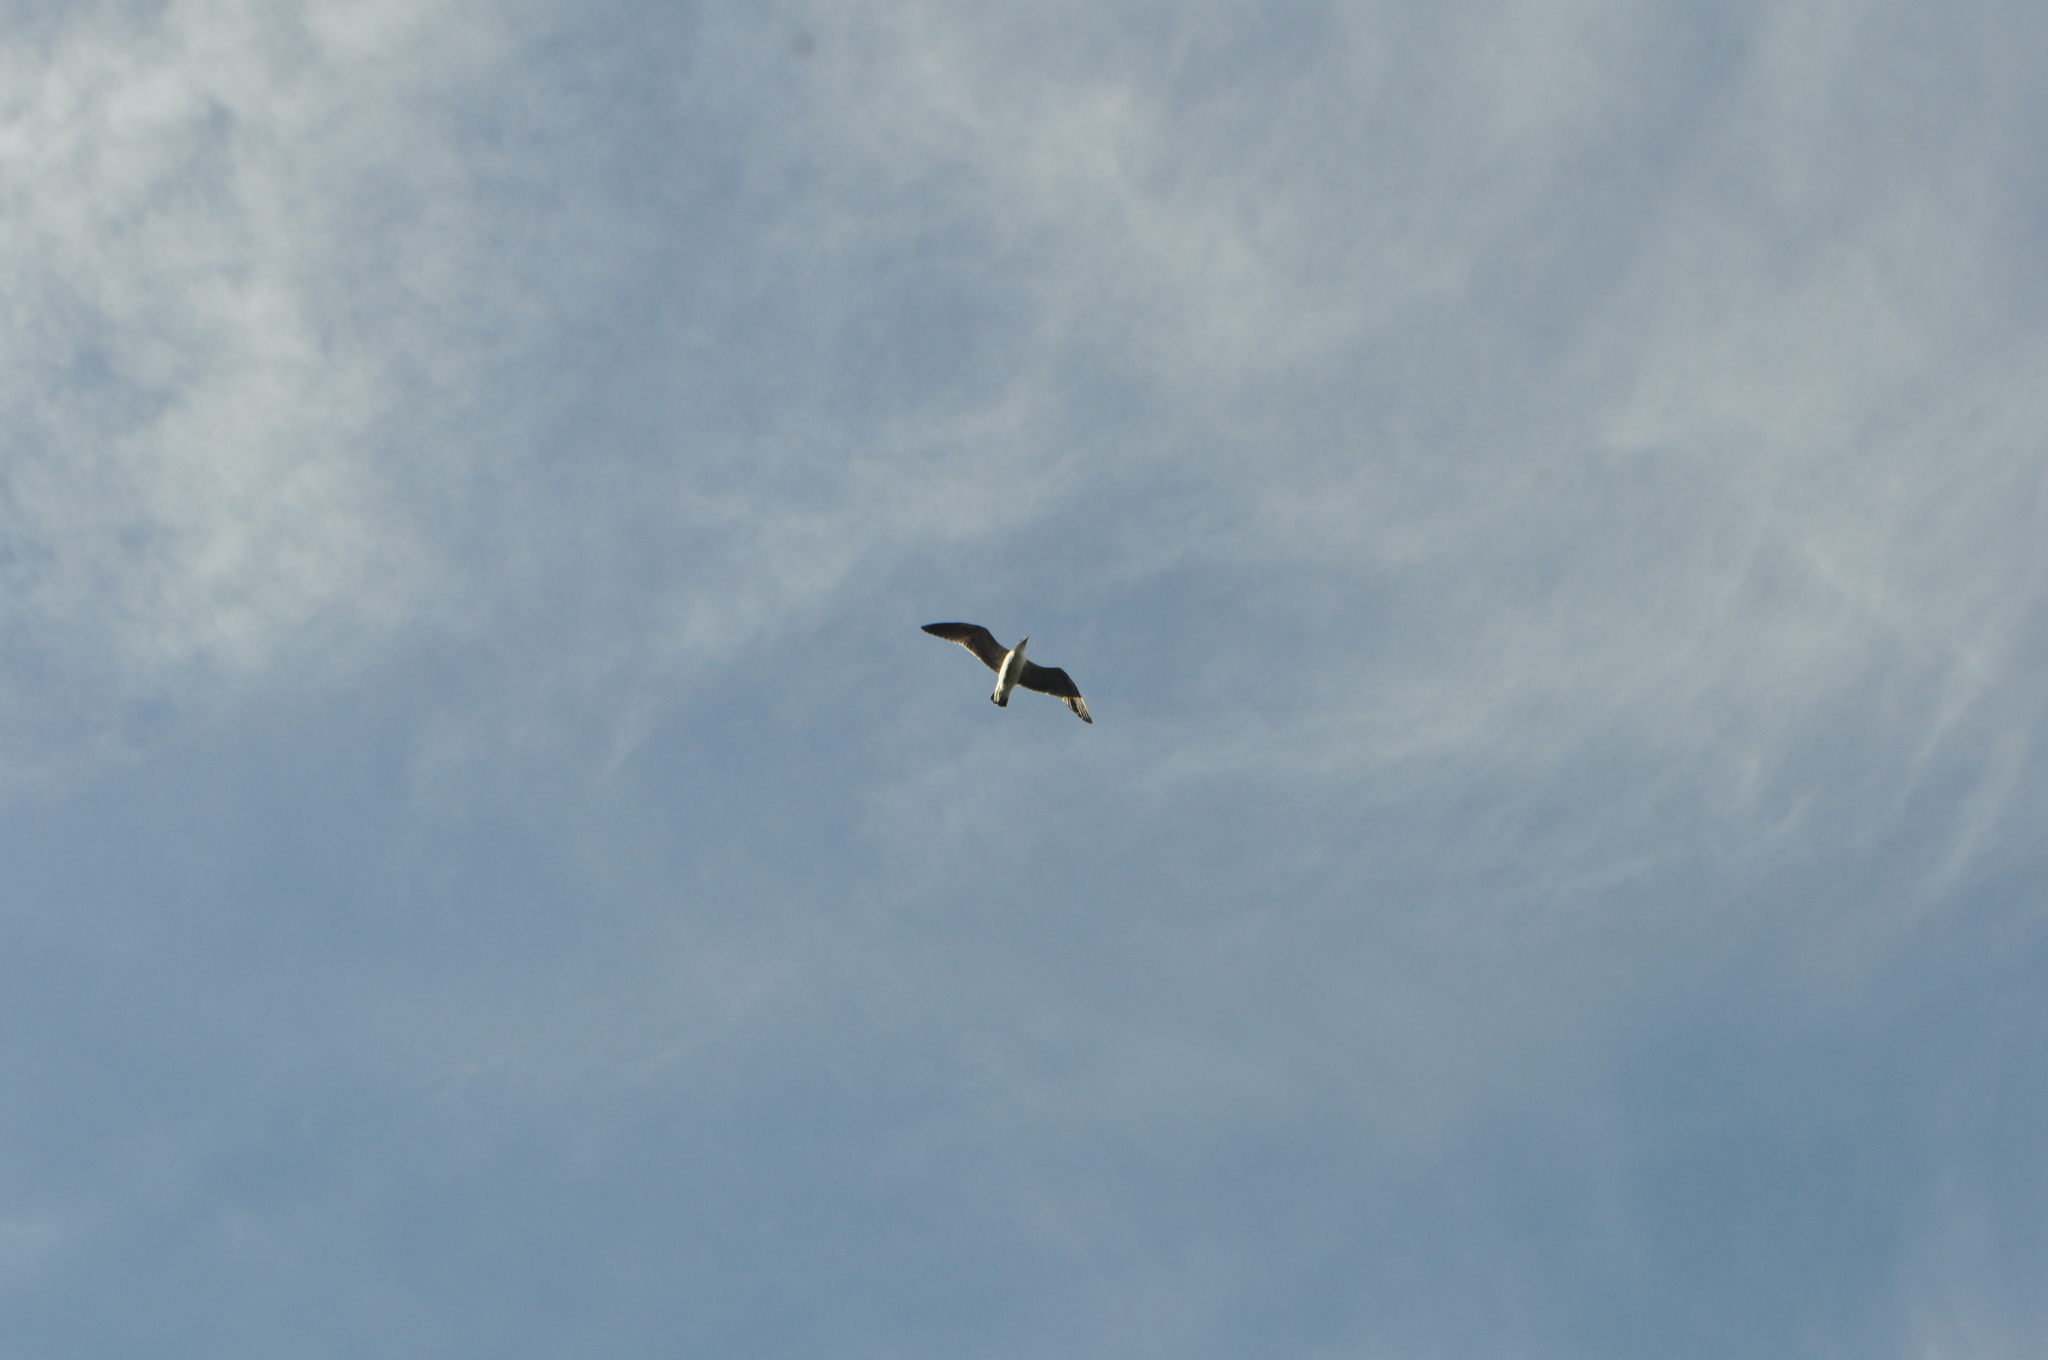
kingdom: Animalia
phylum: Chordata
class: Aves
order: Charadriiformes
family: Laridae
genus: Larus
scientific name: Larus dominicanus
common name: Kelp gull
